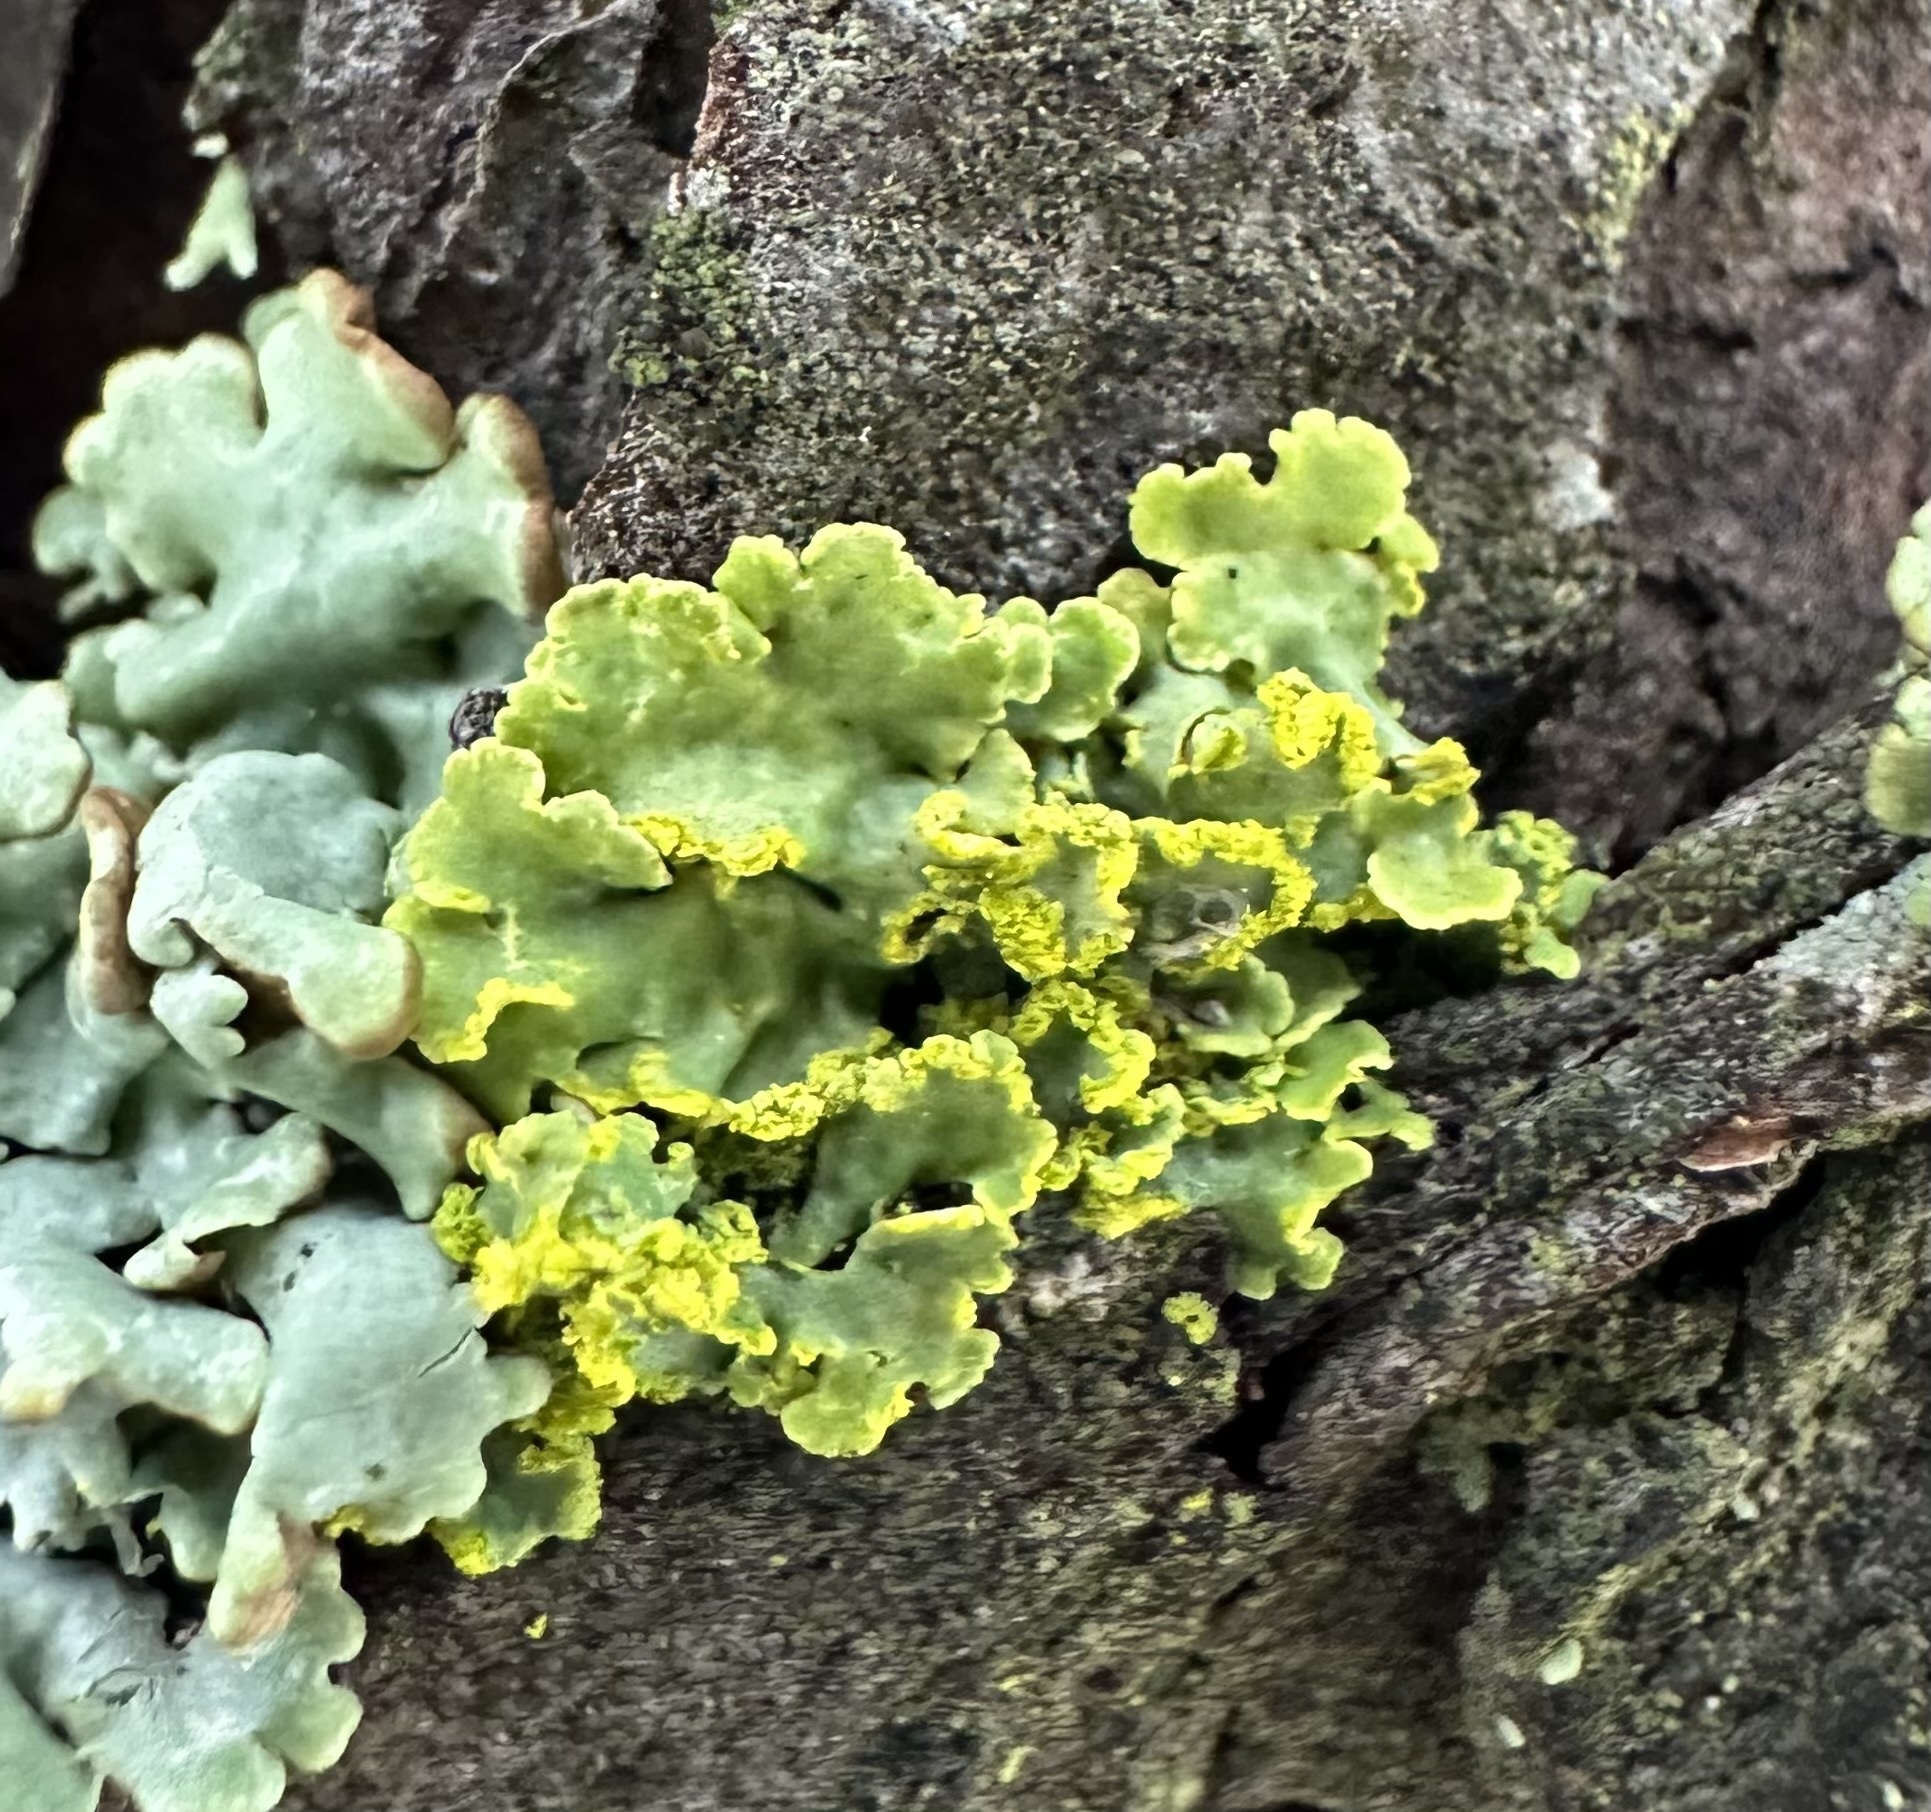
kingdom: Fungi
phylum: Ascomycota
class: Lecanoromycetes
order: Lecanorales
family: Parmeliaceae
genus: Vulpicida
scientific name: Vulpicida pinastri
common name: Powdered sunshine lichen
